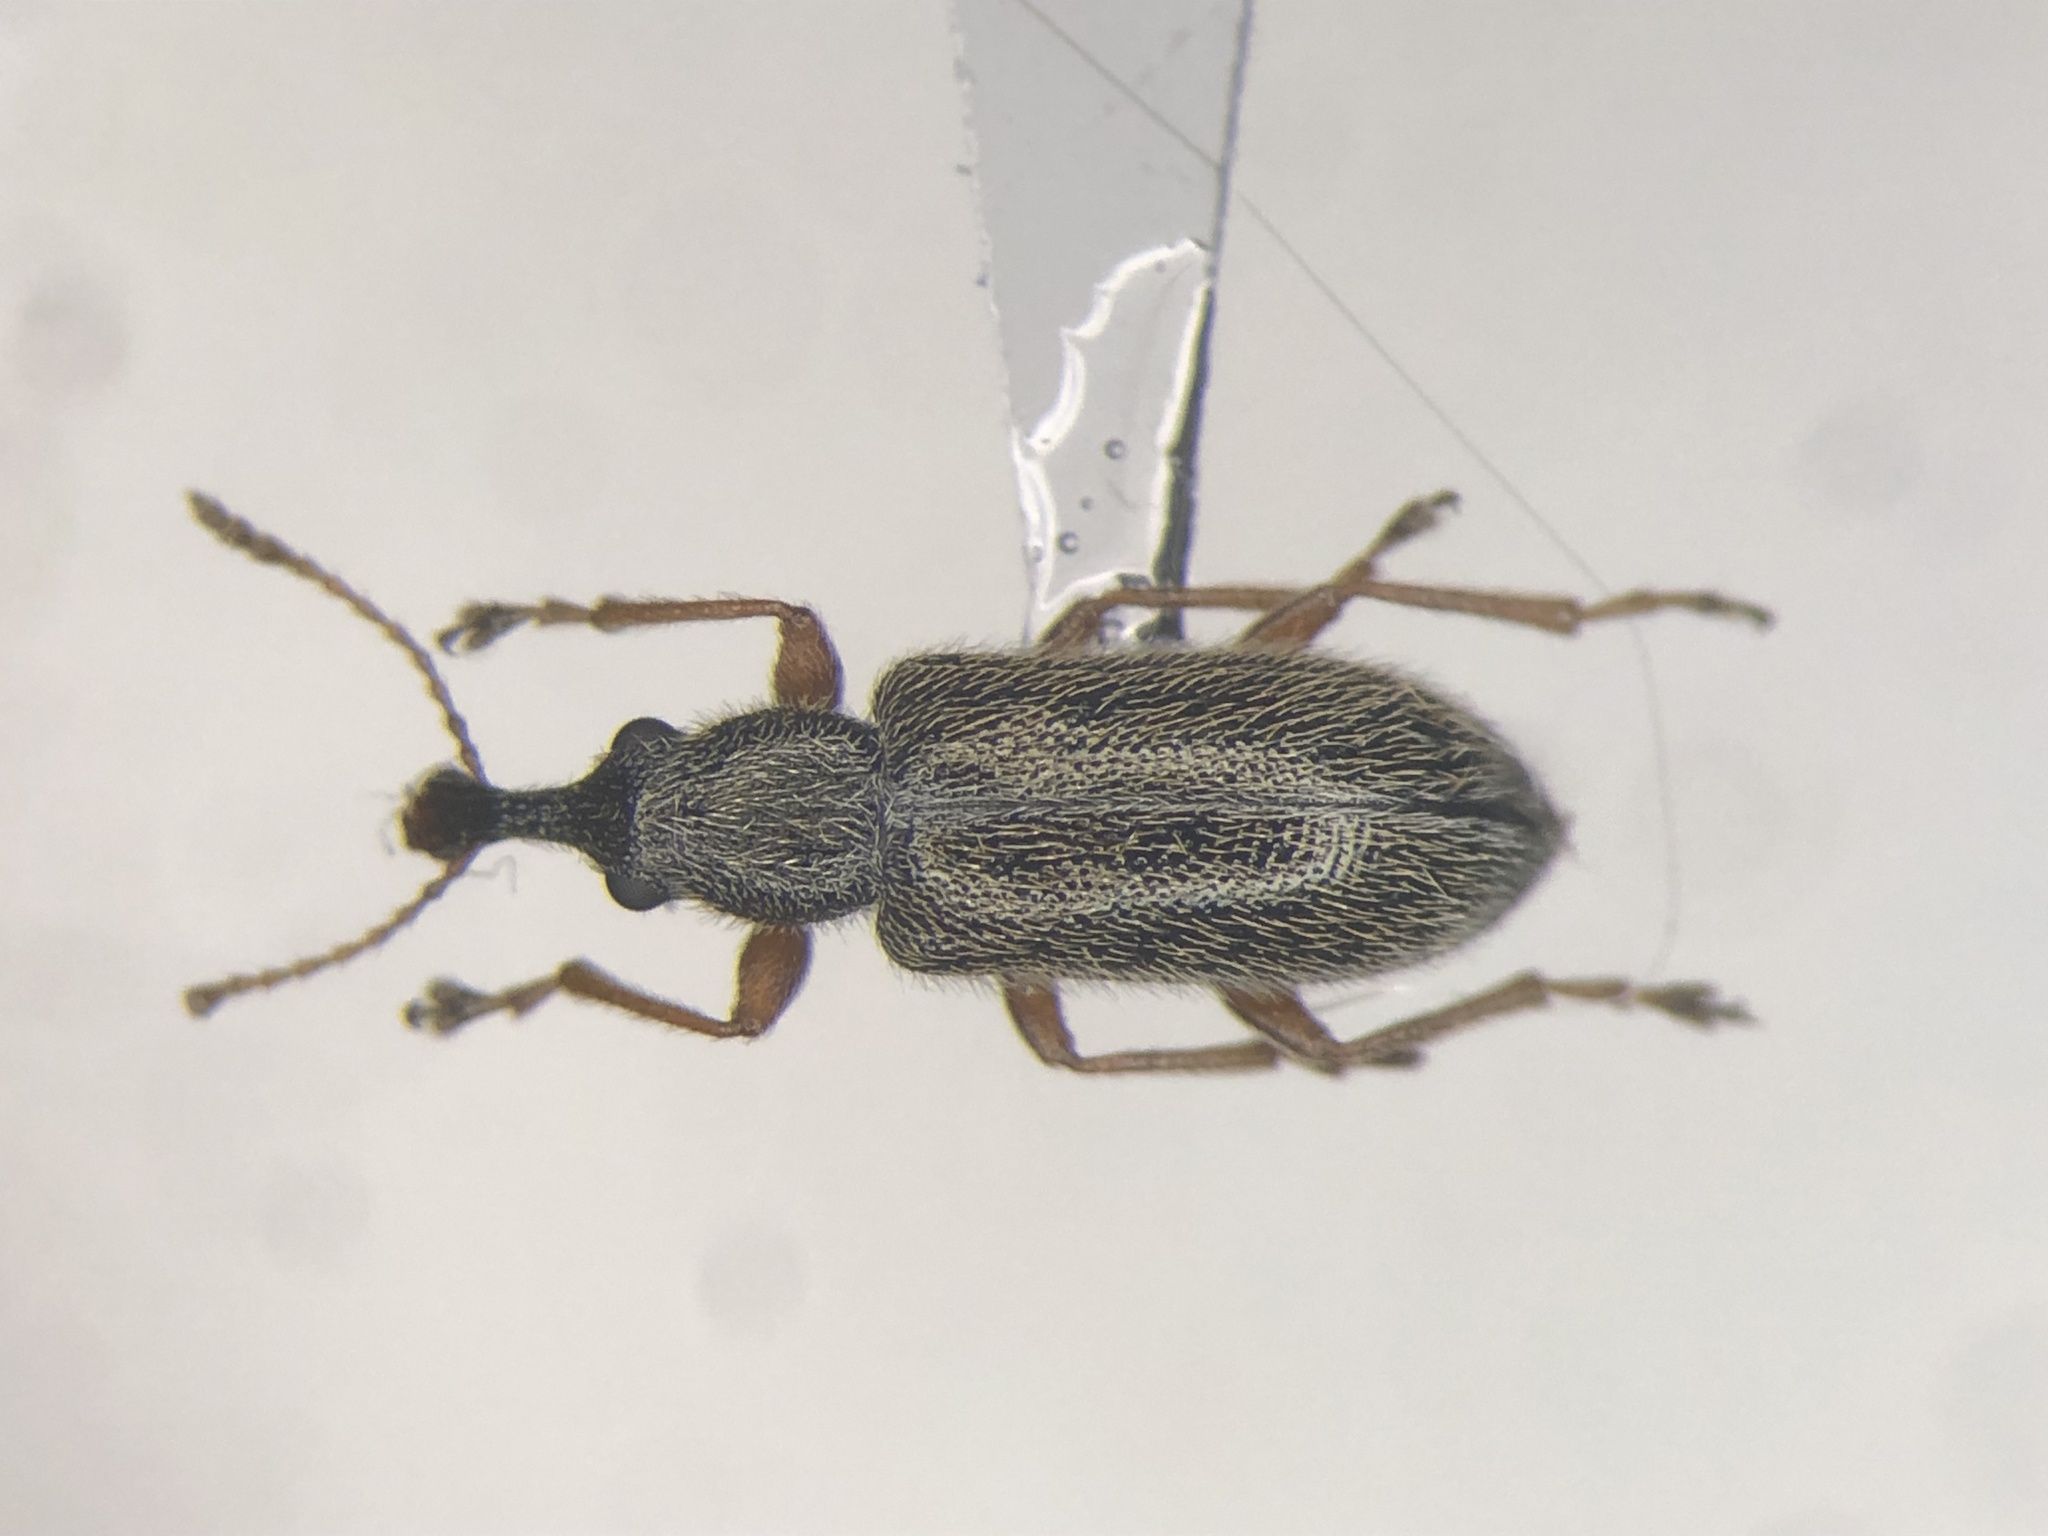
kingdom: Animalia
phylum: Arthropoda
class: Insecta
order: Coleoptera
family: Nemonychidae
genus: Cimberis
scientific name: Cimberis elongata
